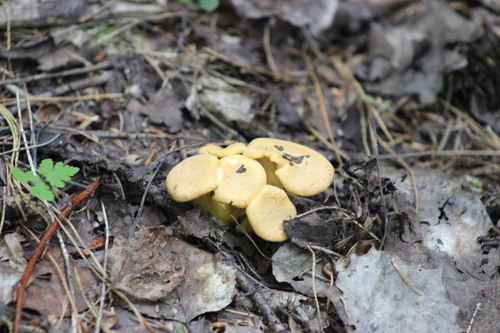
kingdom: Fungi
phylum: Basidiomycota
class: Agaricomycetes
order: Cantharellales
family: Hydnaceae
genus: Cantharellus
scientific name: Cantharellus cibarius
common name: Chanterelle
